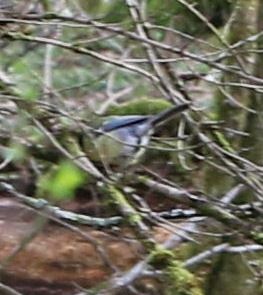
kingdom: Animalia
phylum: Chordata
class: Aves
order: Passeriformes
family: Paridae
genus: Parus
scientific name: Parus major
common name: Great tit
